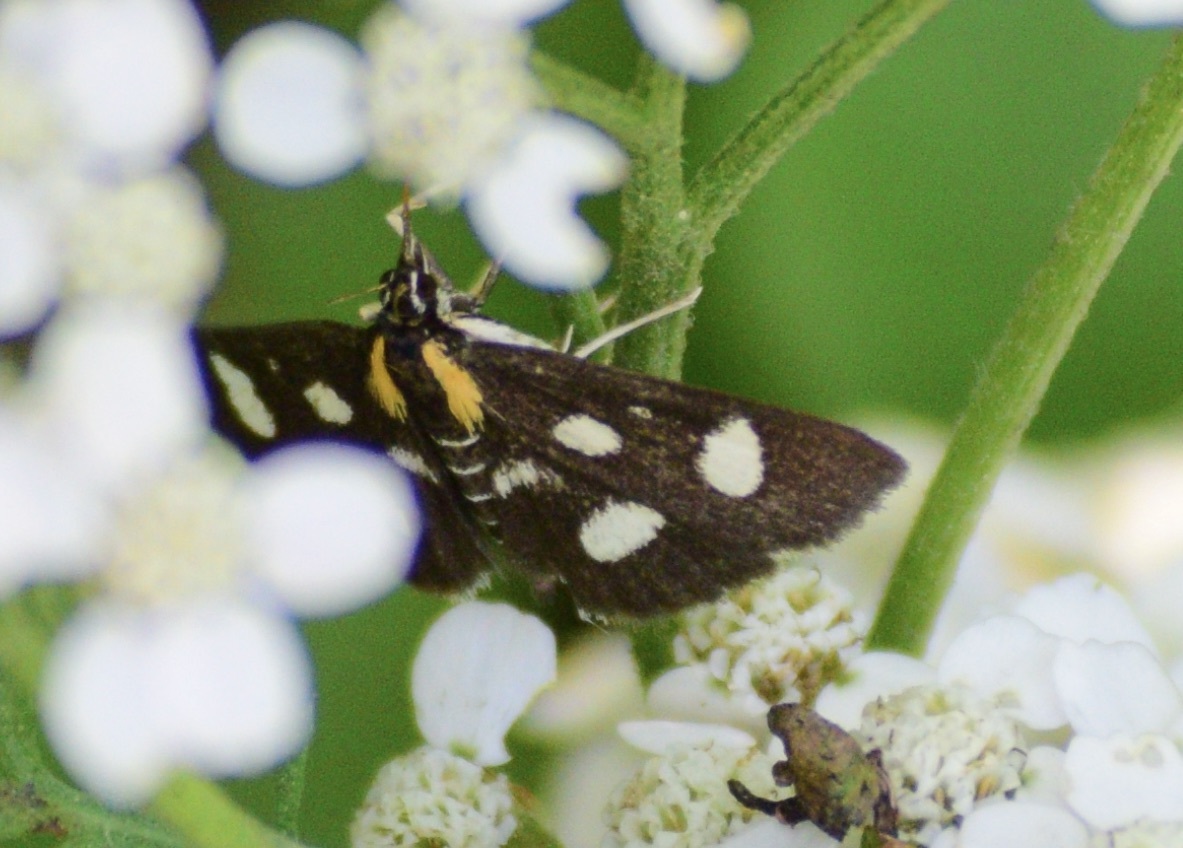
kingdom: Animalia
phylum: Arthropoda
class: Insecta
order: Lepidoptera
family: Crambidae
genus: Anania
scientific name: Anania funebris
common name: White-spotted sable moth
